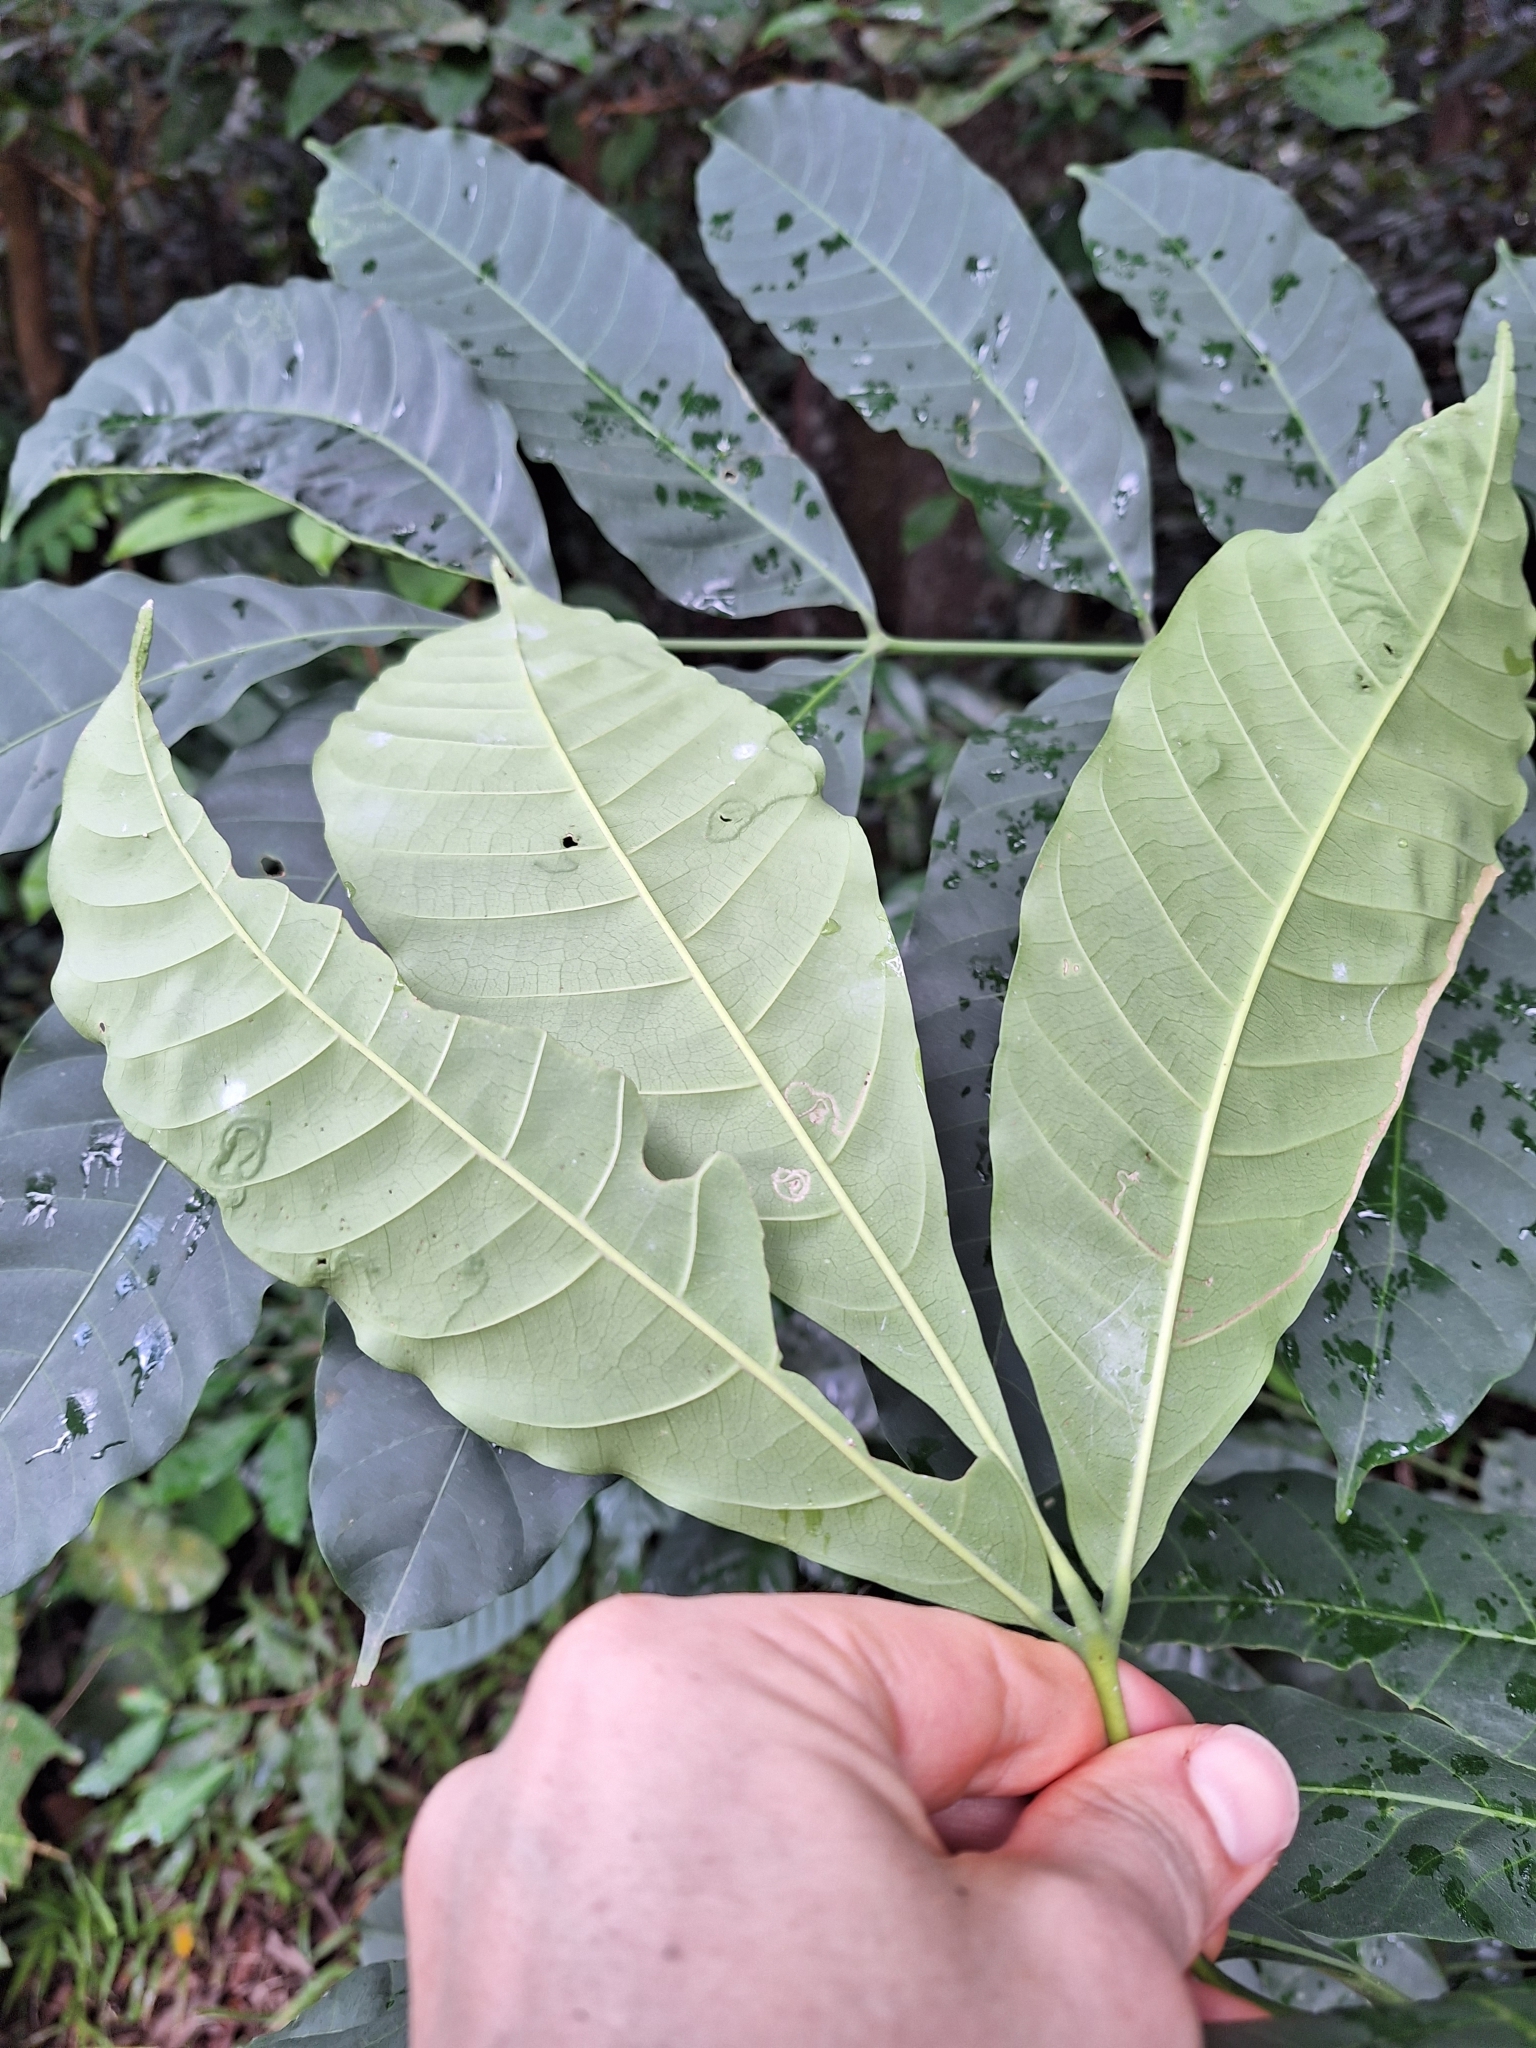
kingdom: Plantae
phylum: Tracheophyta
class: Magnoliopsida
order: Sapindales
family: Meliaceae
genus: Aphanamixis
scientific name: Aphanamixis polystachya
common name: Pithraj tree
